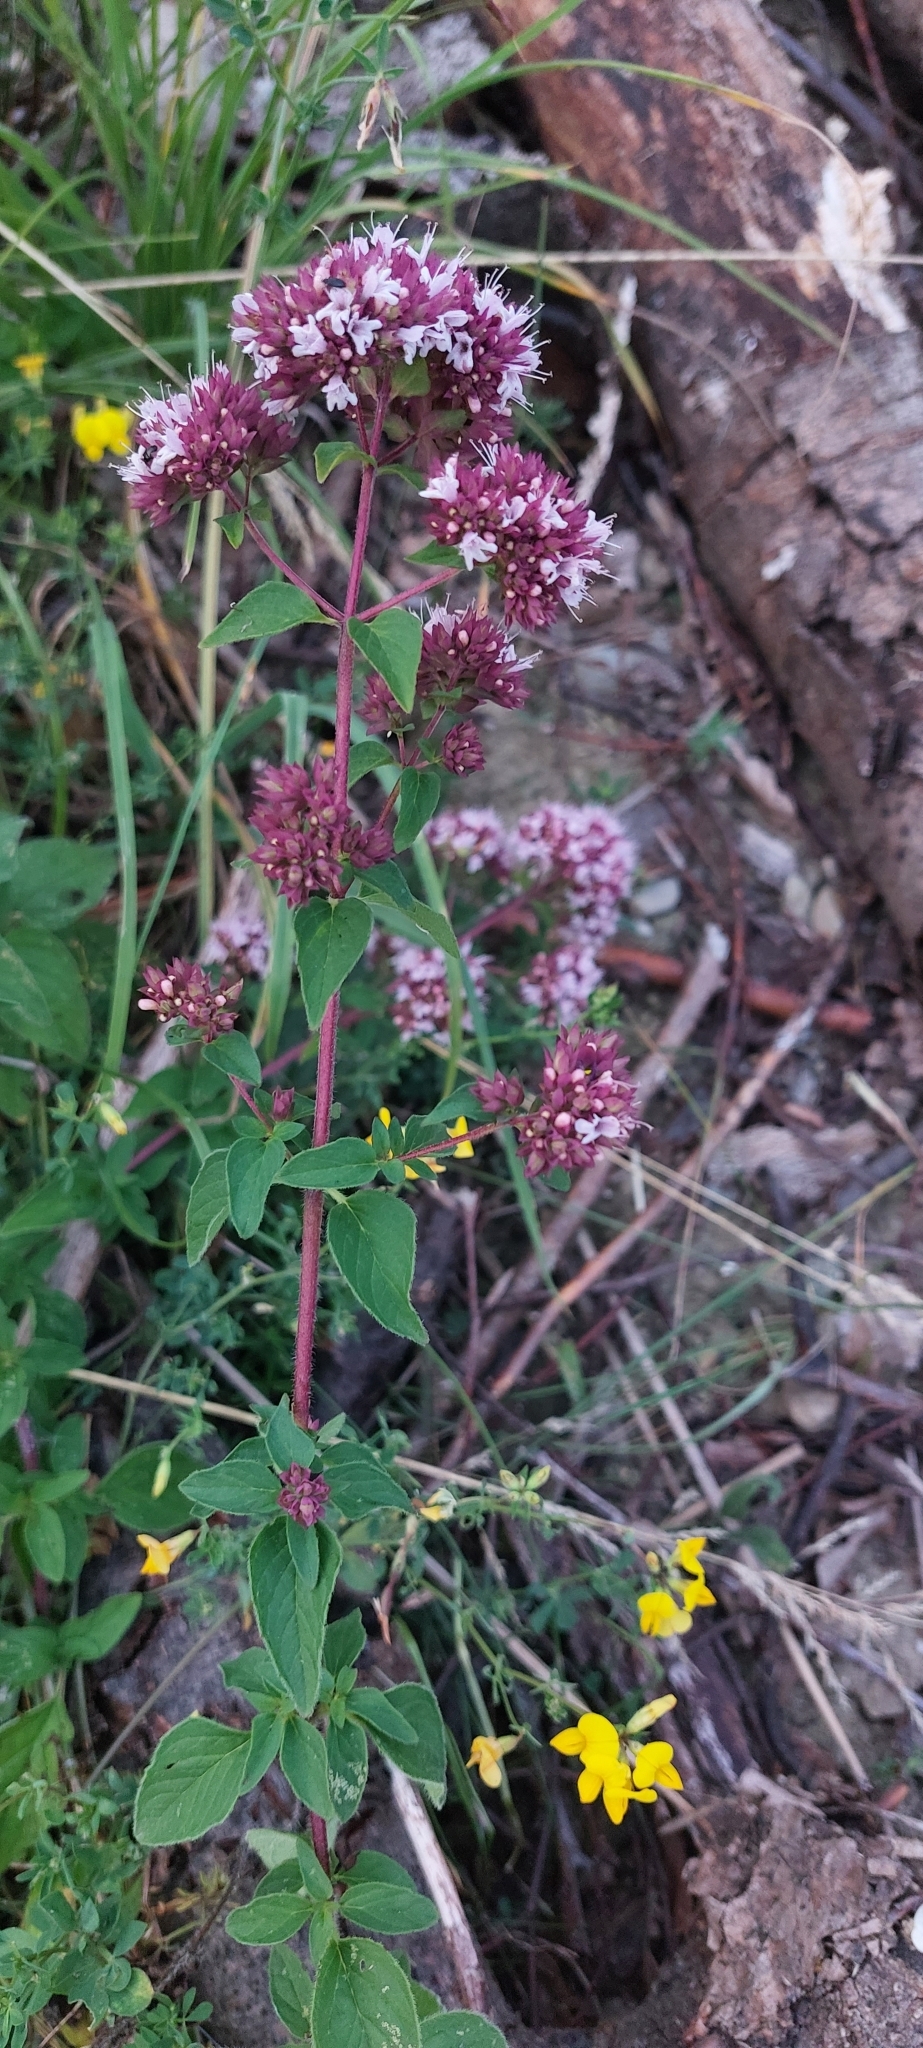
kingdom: Plantae
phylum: Tracheophyta
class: Magnoliopsida
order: Lamiales
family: Lamiaceae
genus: Origanum
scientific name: Origanum vulgare
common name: Wild marjoram
